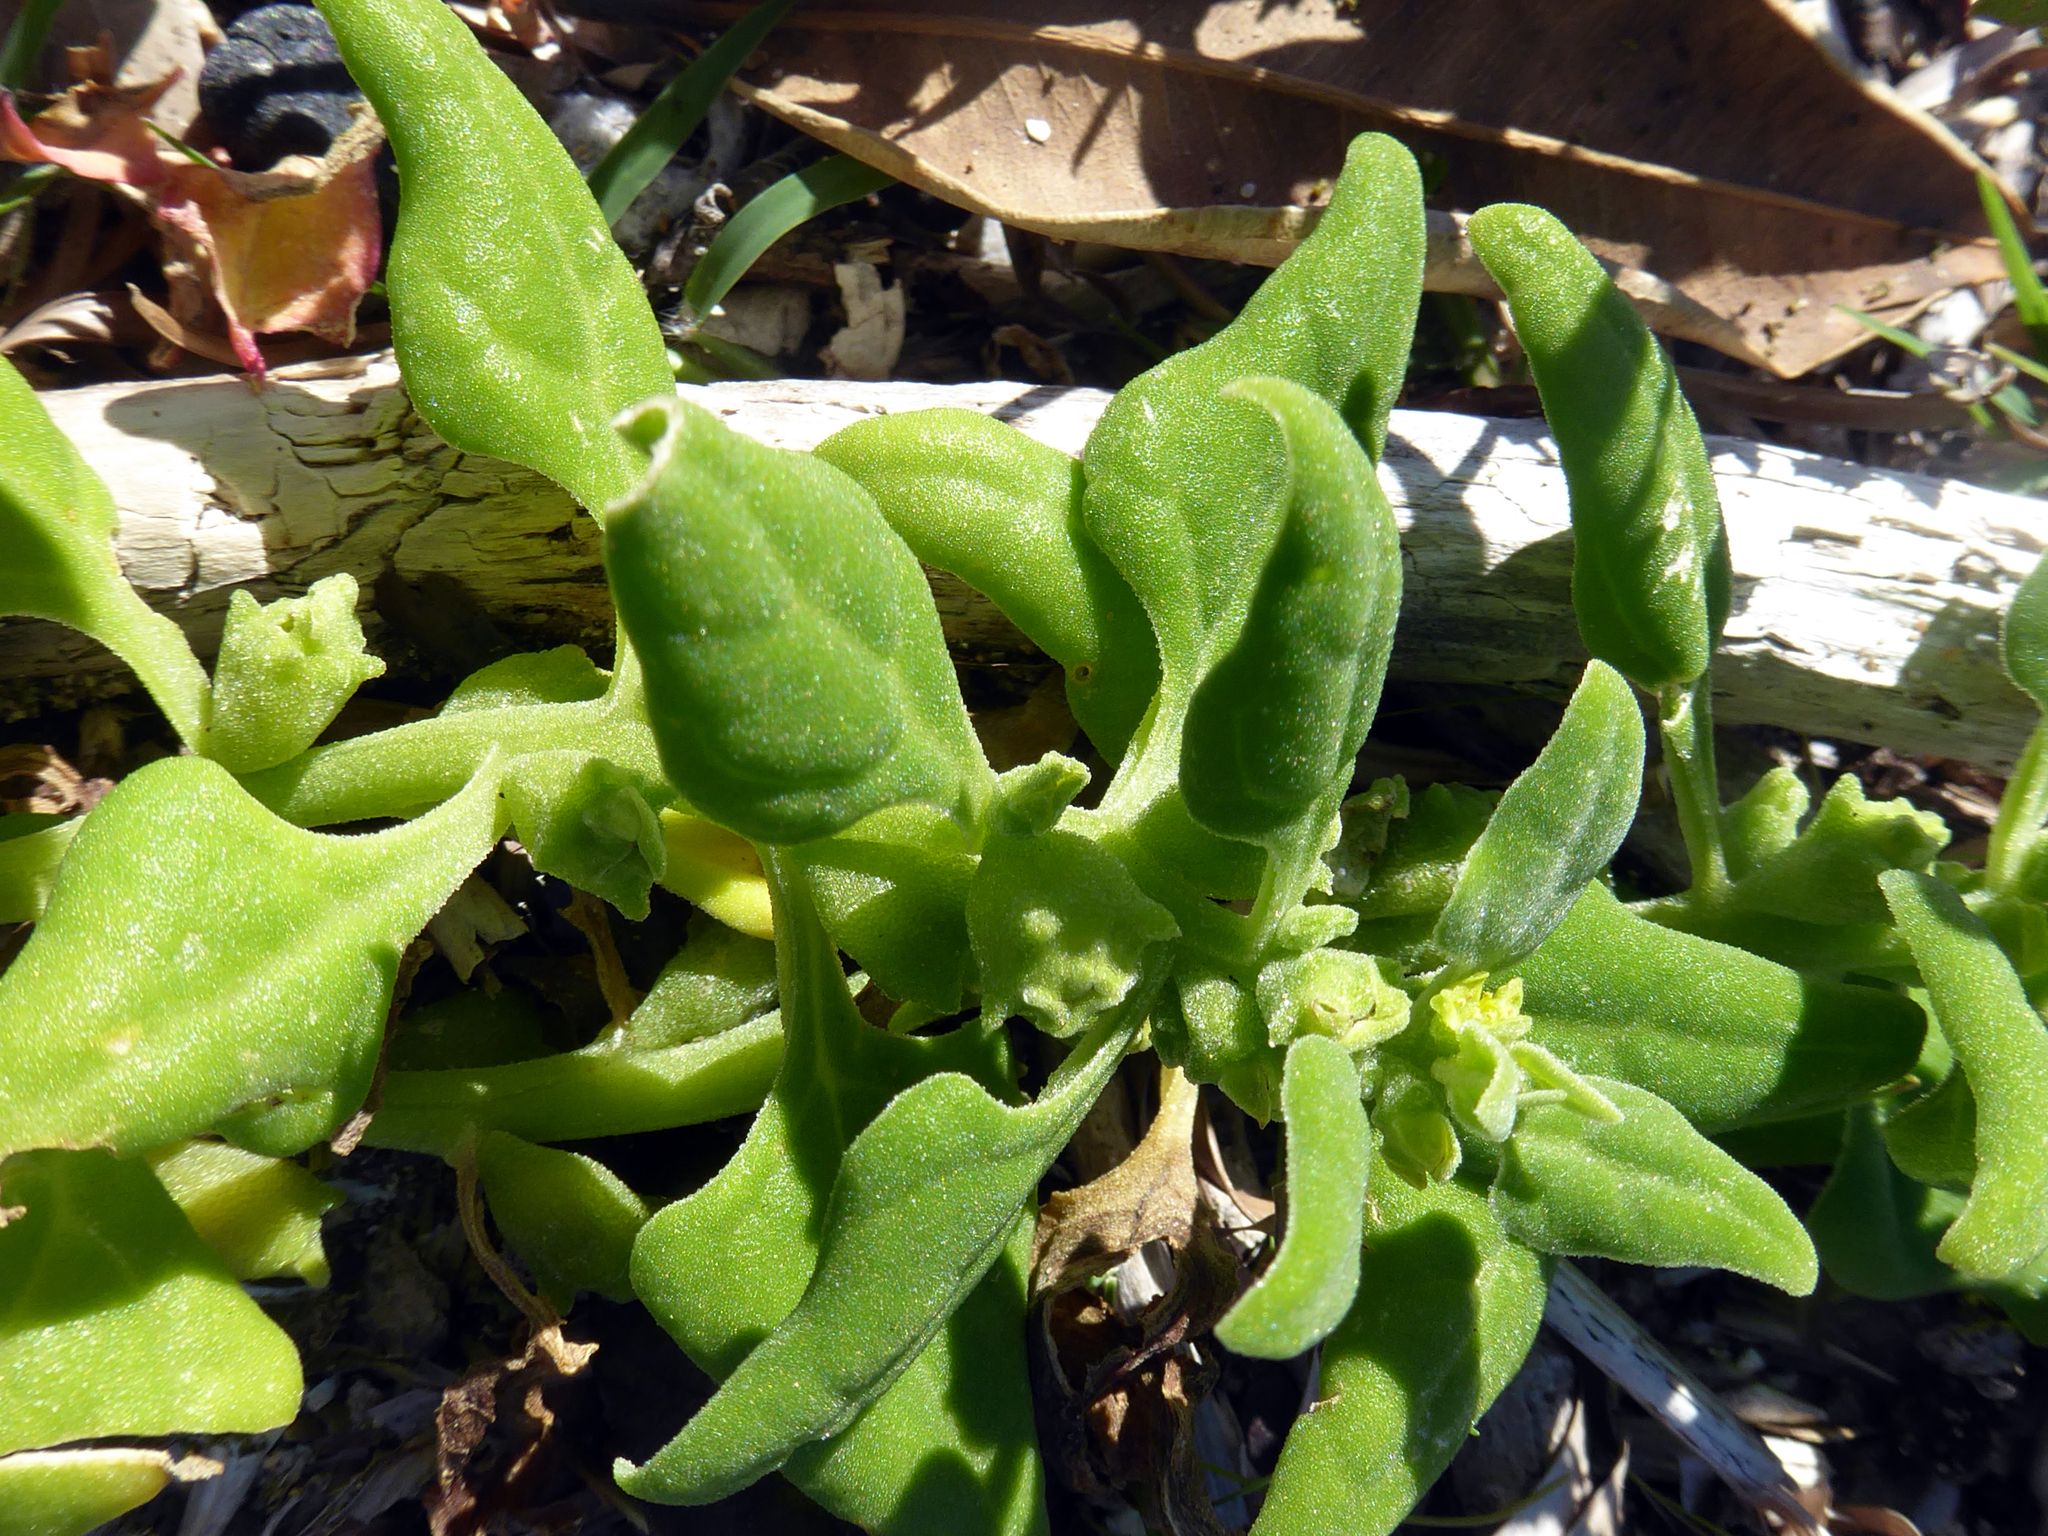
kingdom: Plantae
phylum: Tracheophyta
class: Magnoliopsida
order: Caryophyllales
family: Aizoaceae
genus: Tetragonia
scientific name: Tetragonia tetragonoides
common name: New zealand-spinach
